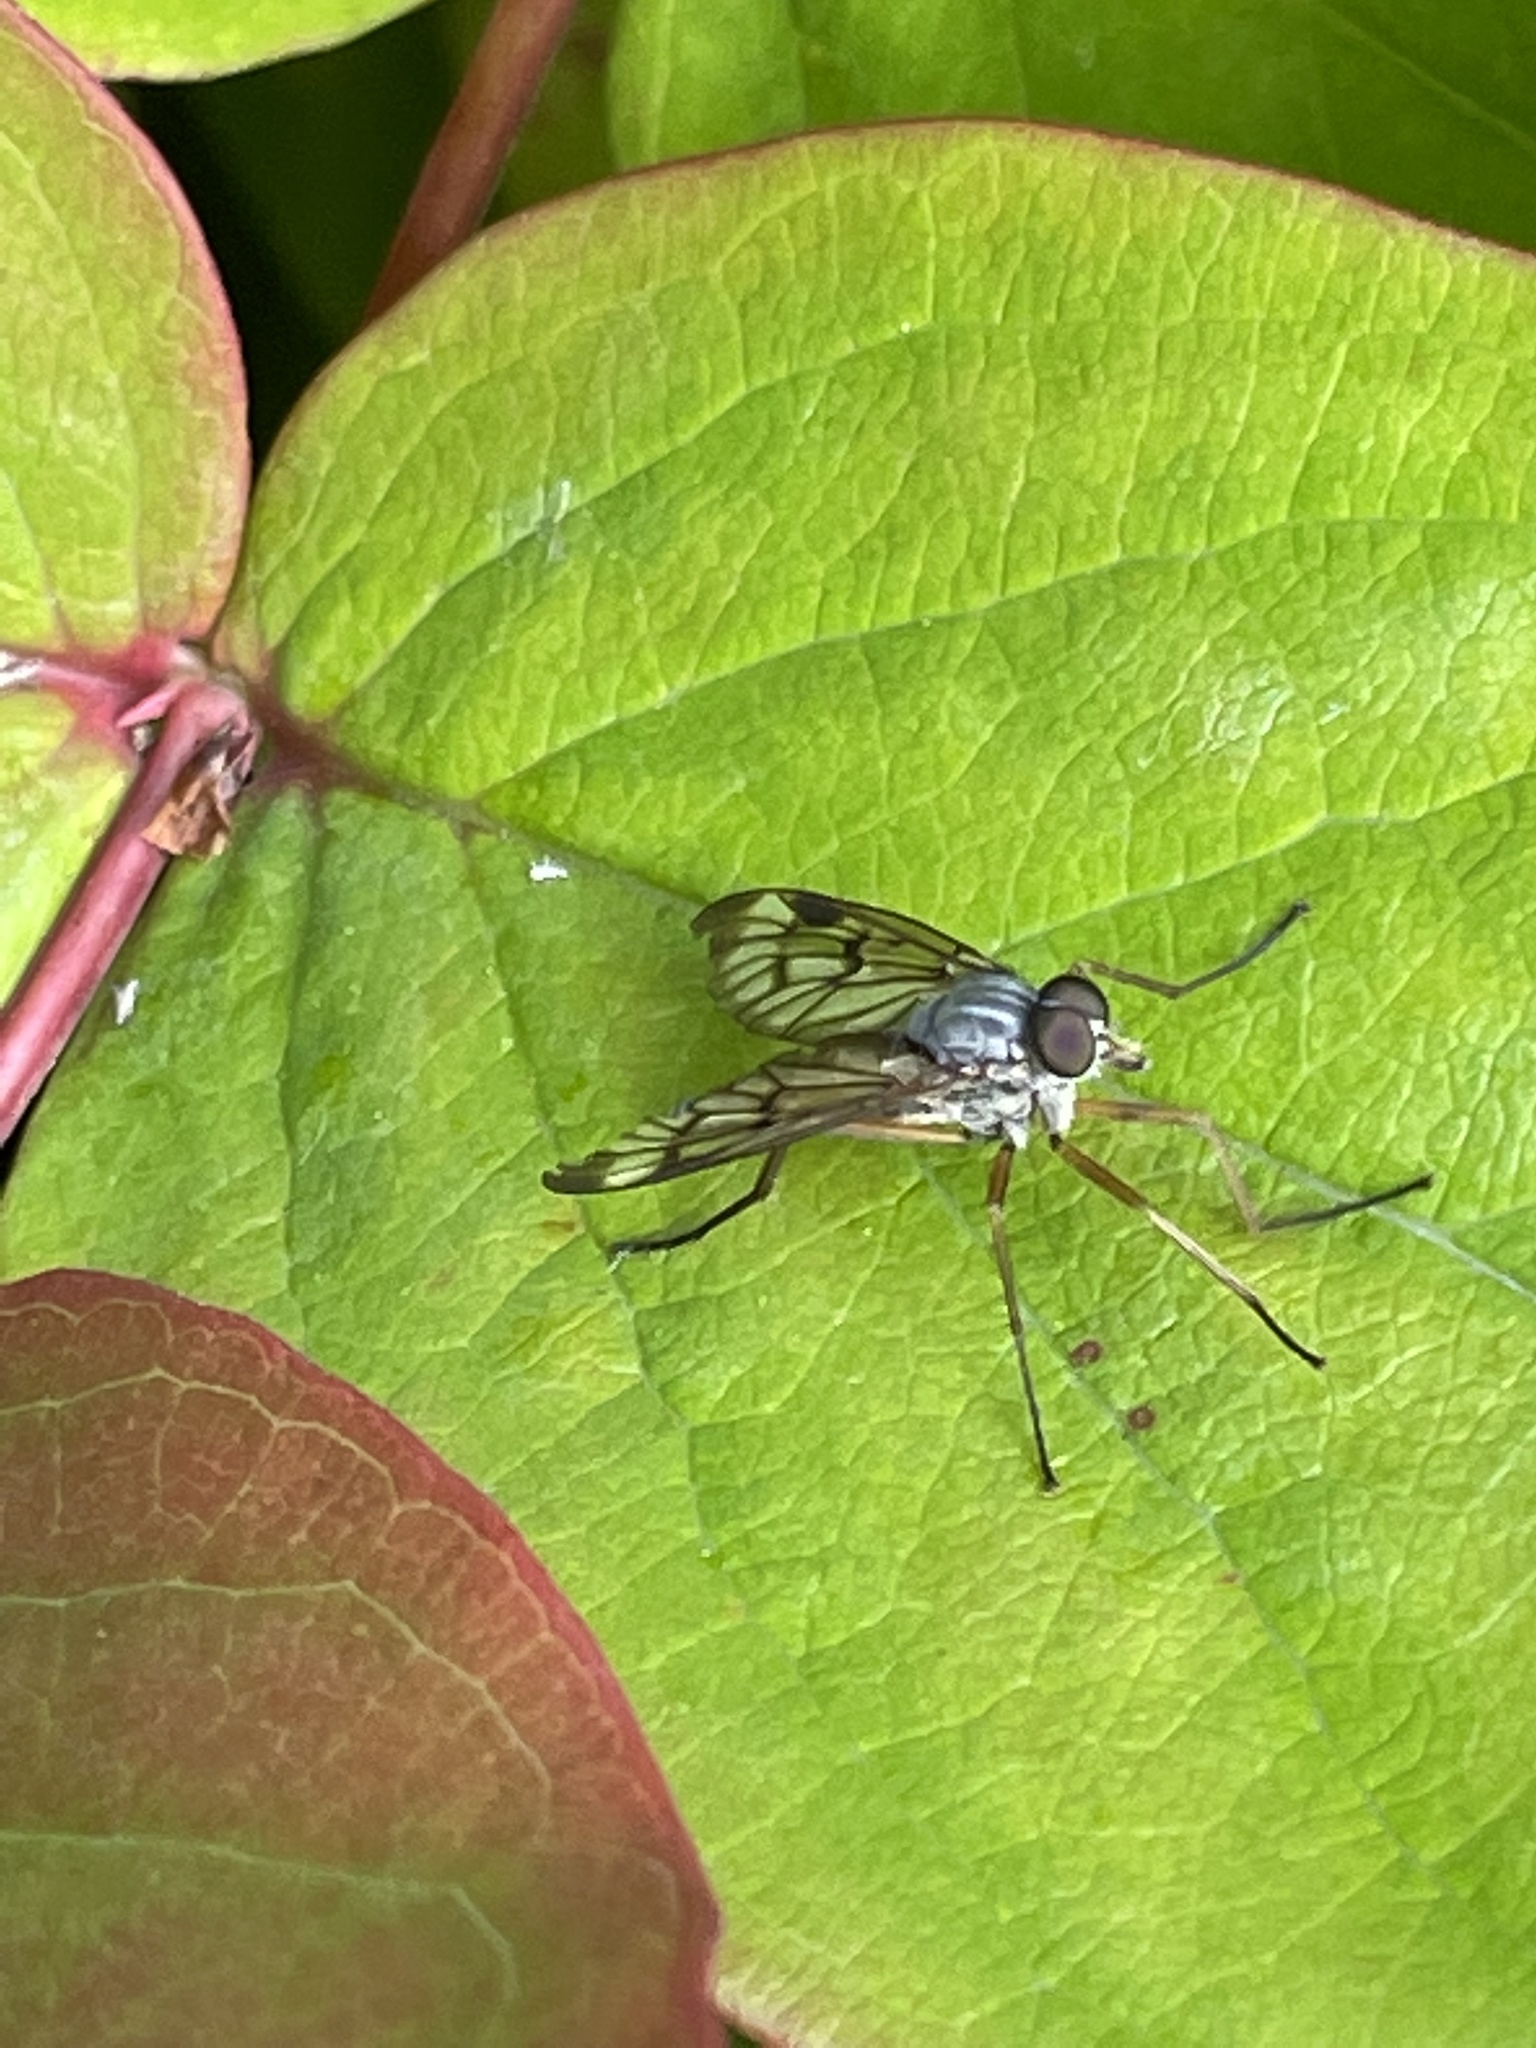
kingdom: Animalia
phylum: Arthropoda
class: Insecta
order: Diptera
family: Rhagionidae
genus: Rhagio
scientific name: Rhagio scolopacea
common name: Downlooker snipefly
